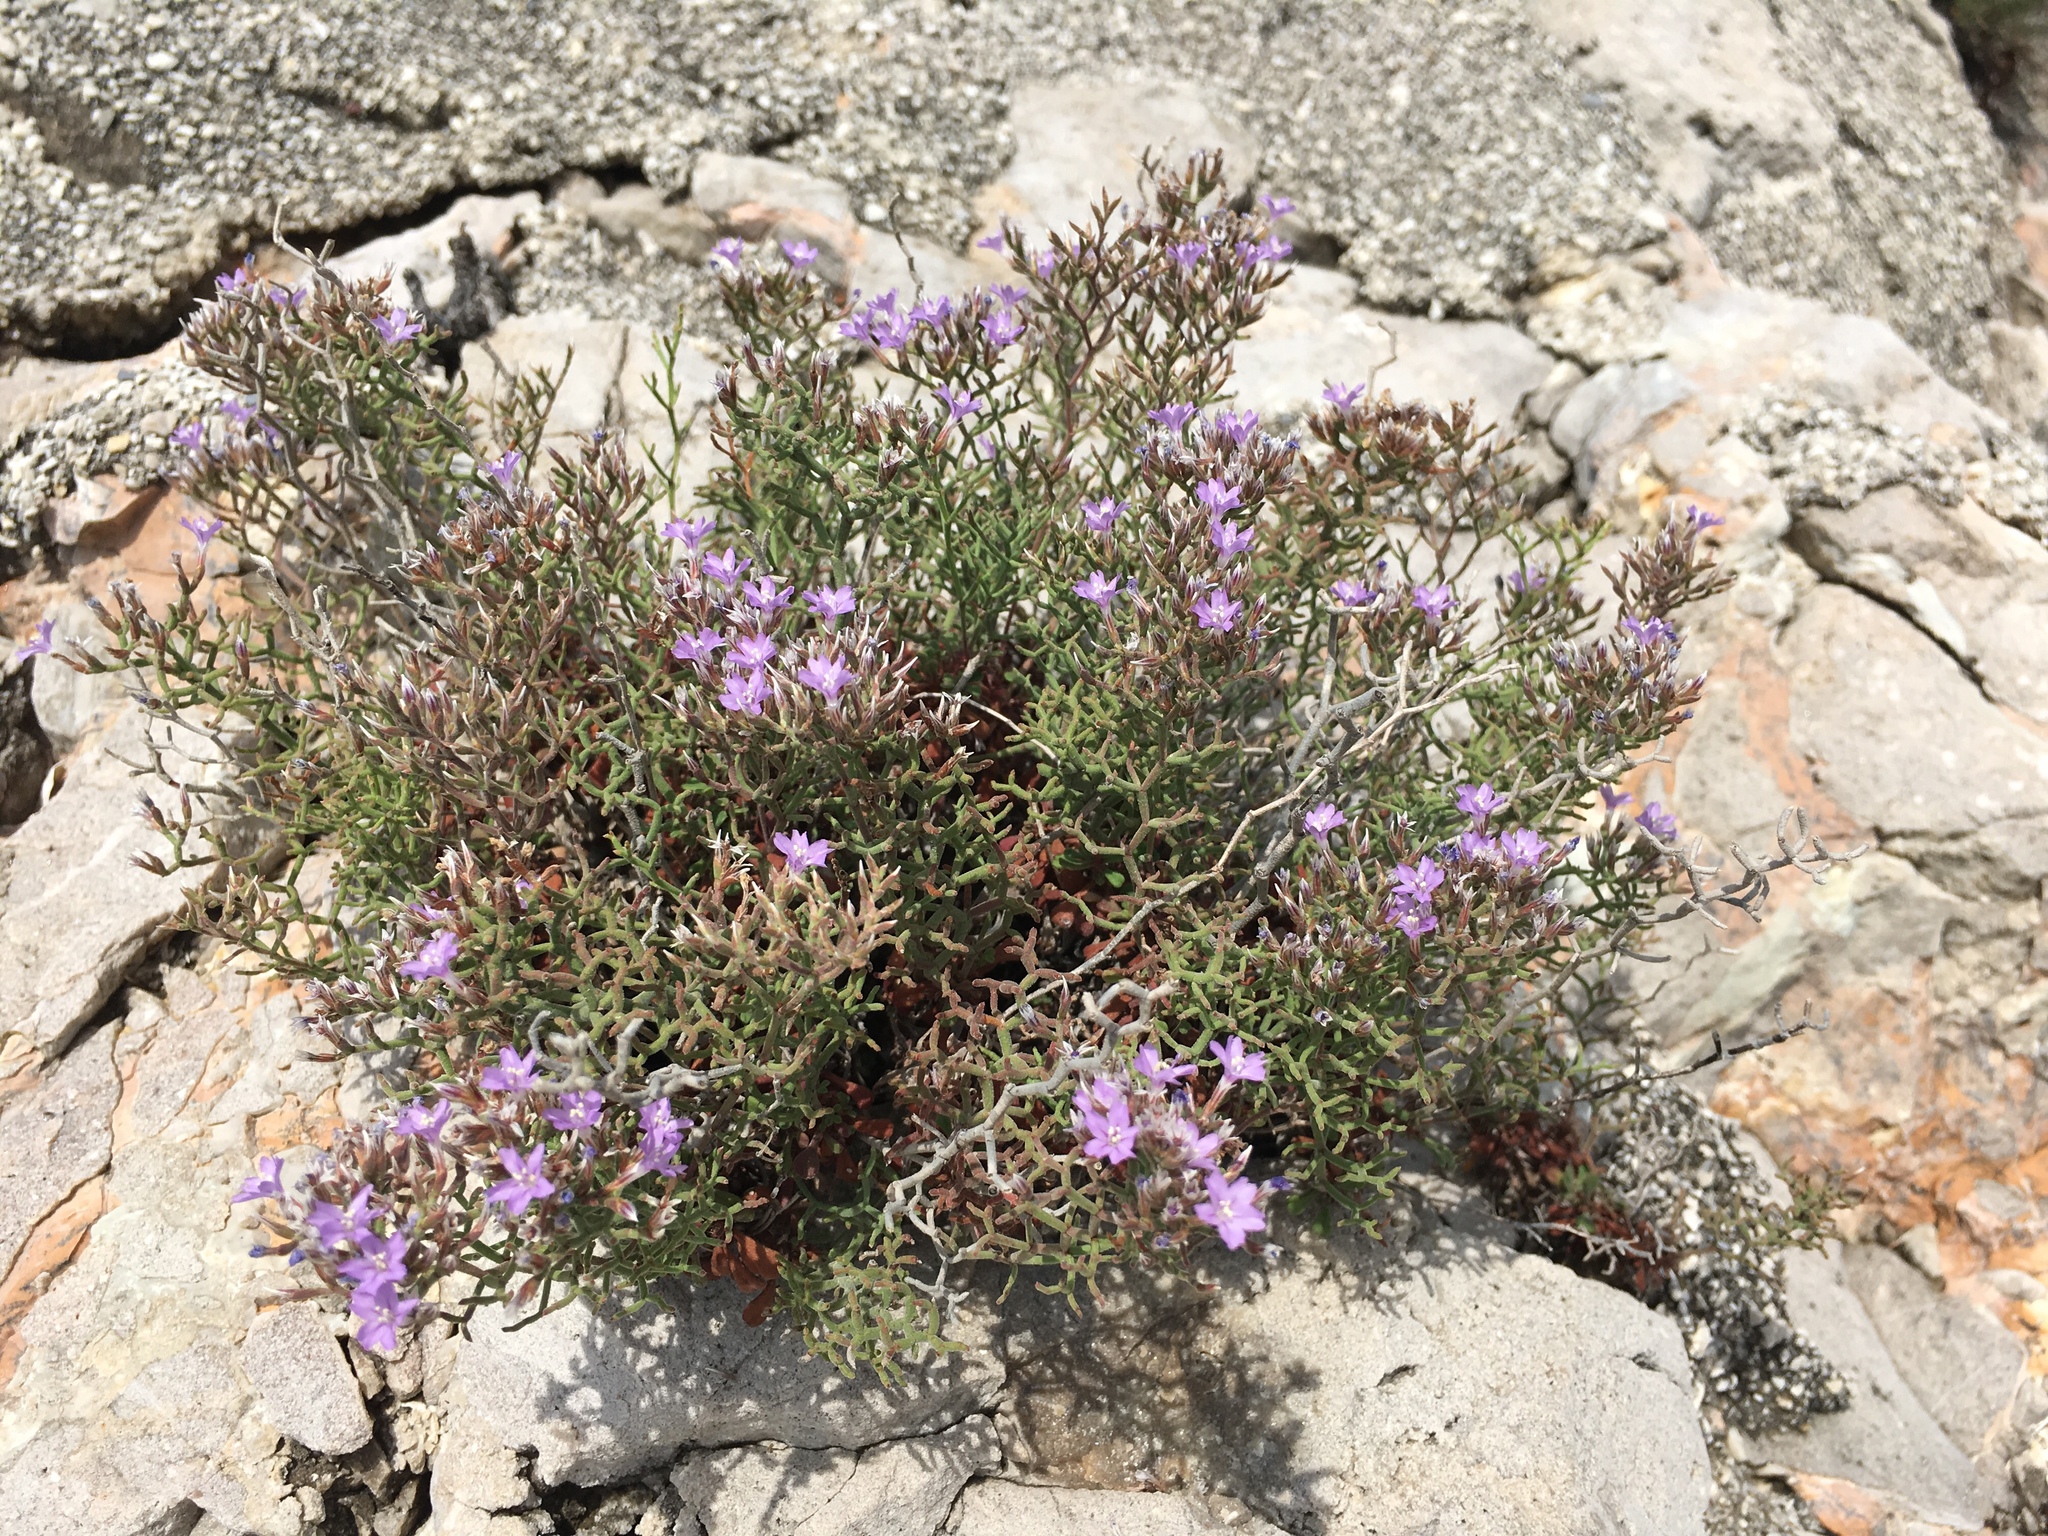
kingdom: Plantae
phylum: Tracheophyta
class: Magnoliopsida
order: Caryophyllales
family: Plumbaginaceae
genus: Limonium
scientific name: Limonium cordatum
